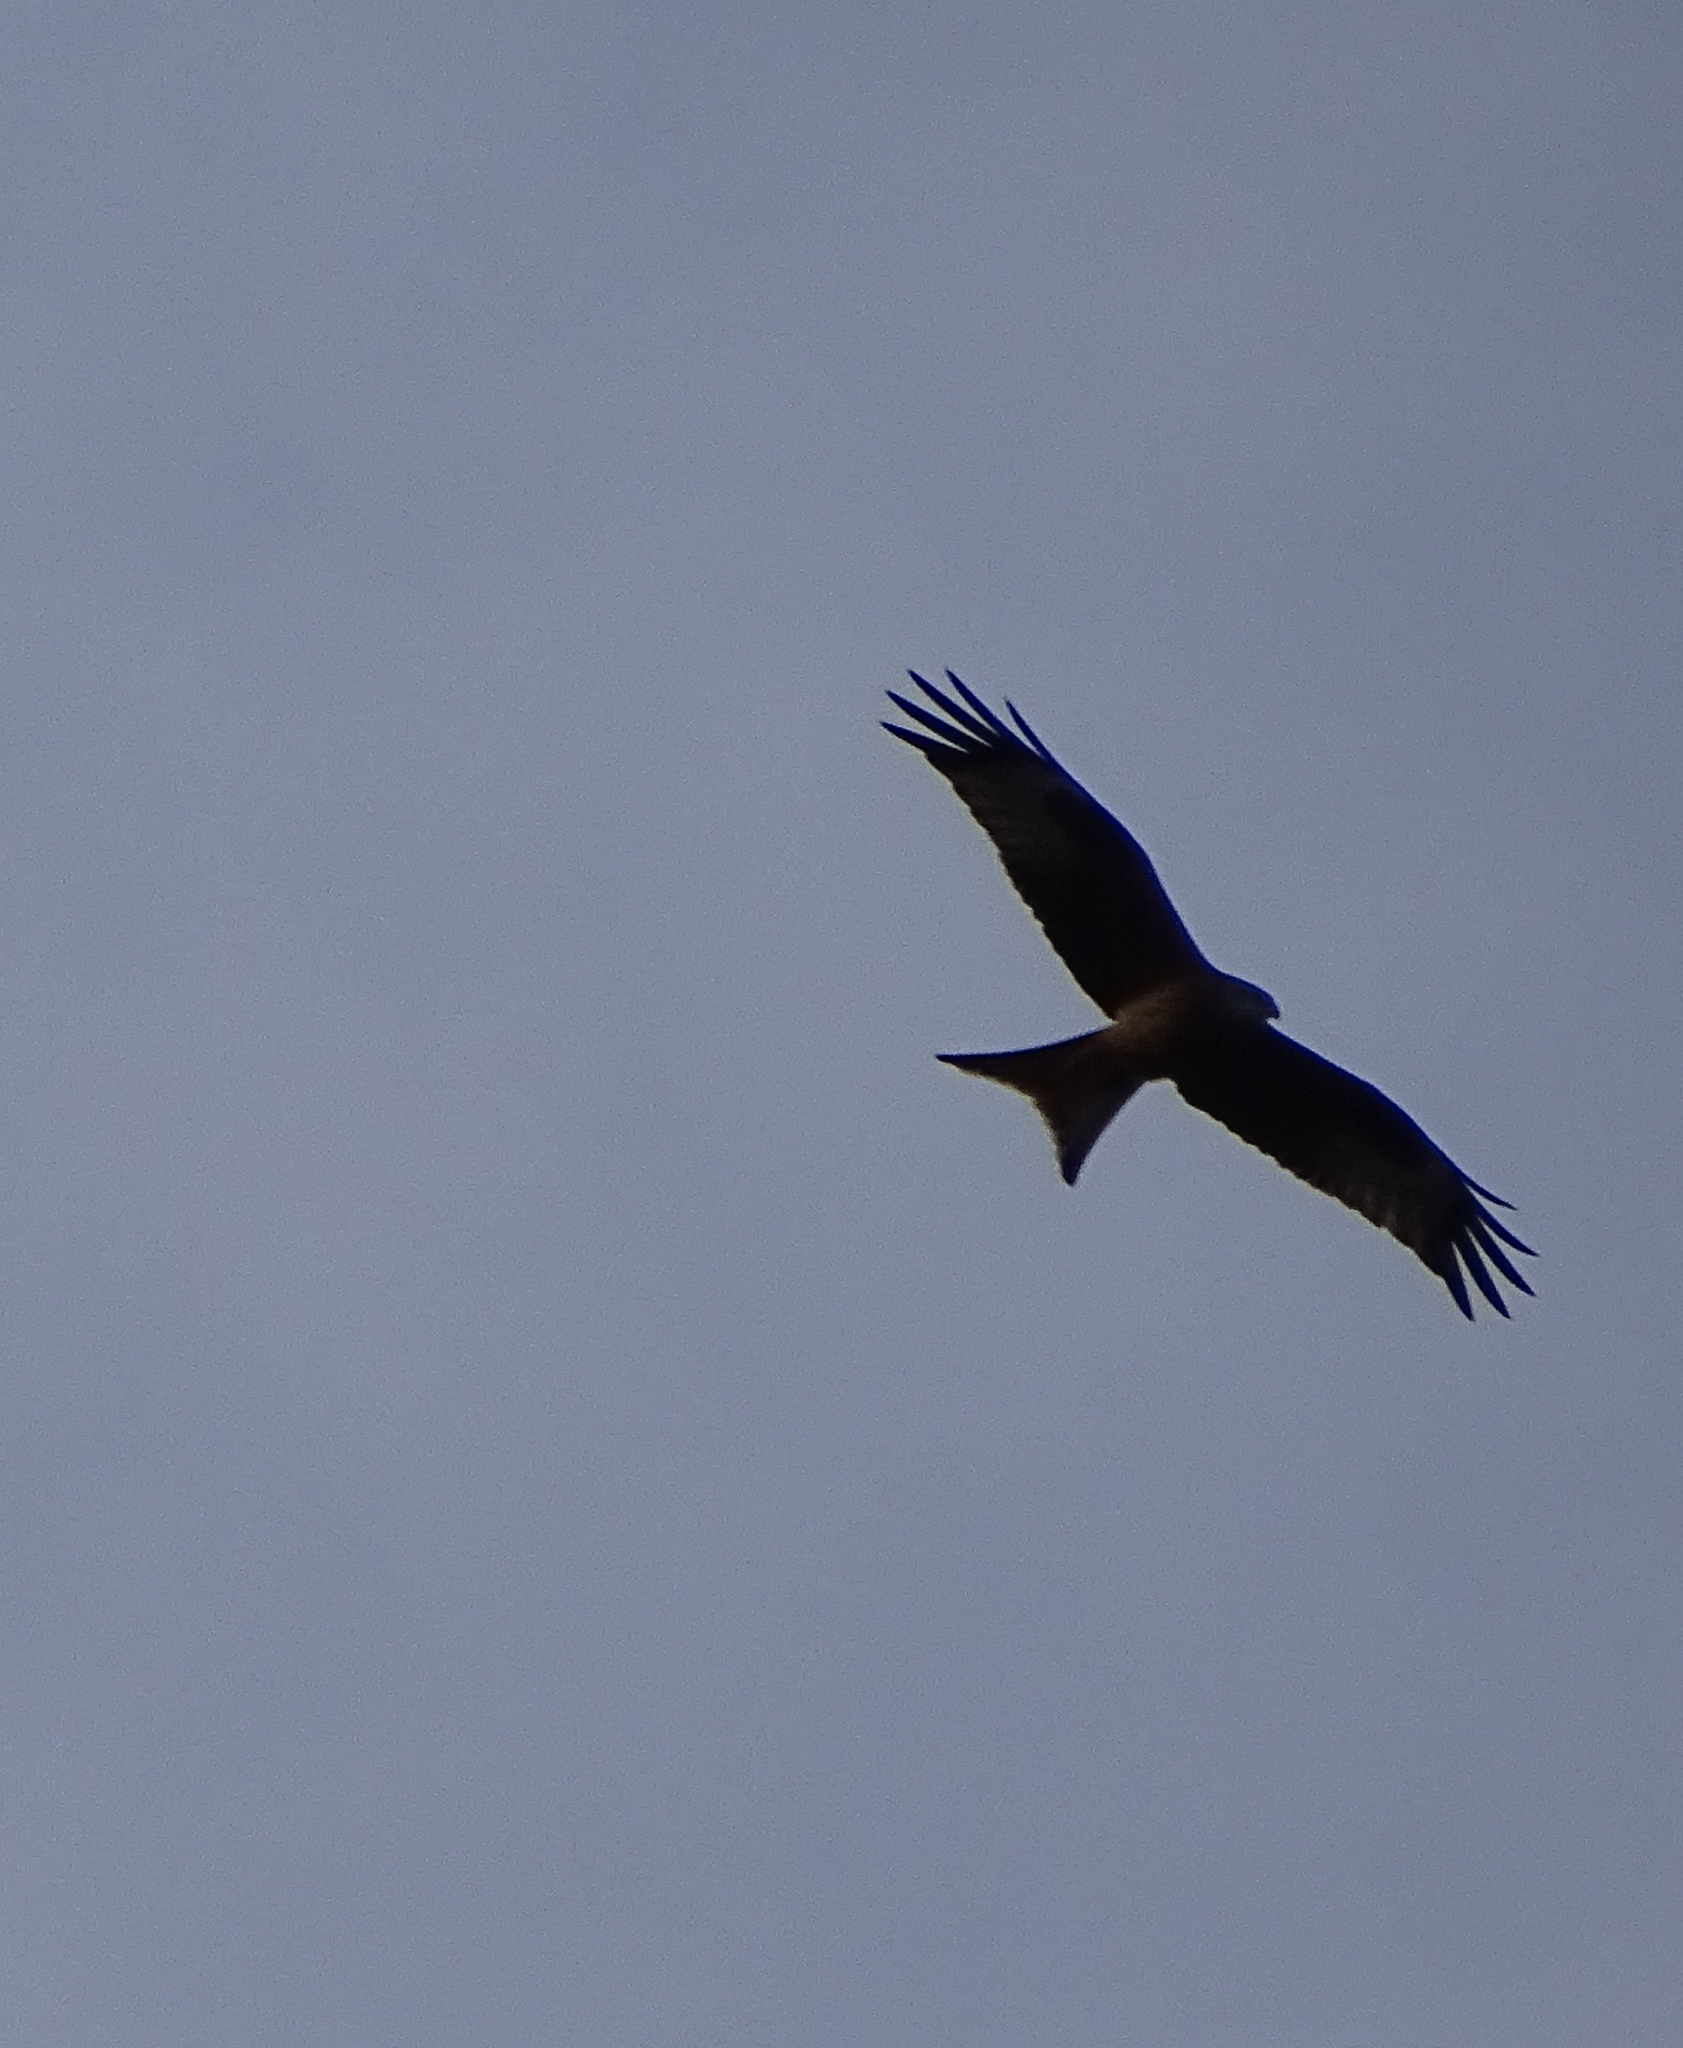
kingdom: Animalia
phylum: Chordata
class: Aves
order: Accipitriformes
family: Accipitridae
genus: Milvus
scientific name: Milvus milvus
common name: Red kite
